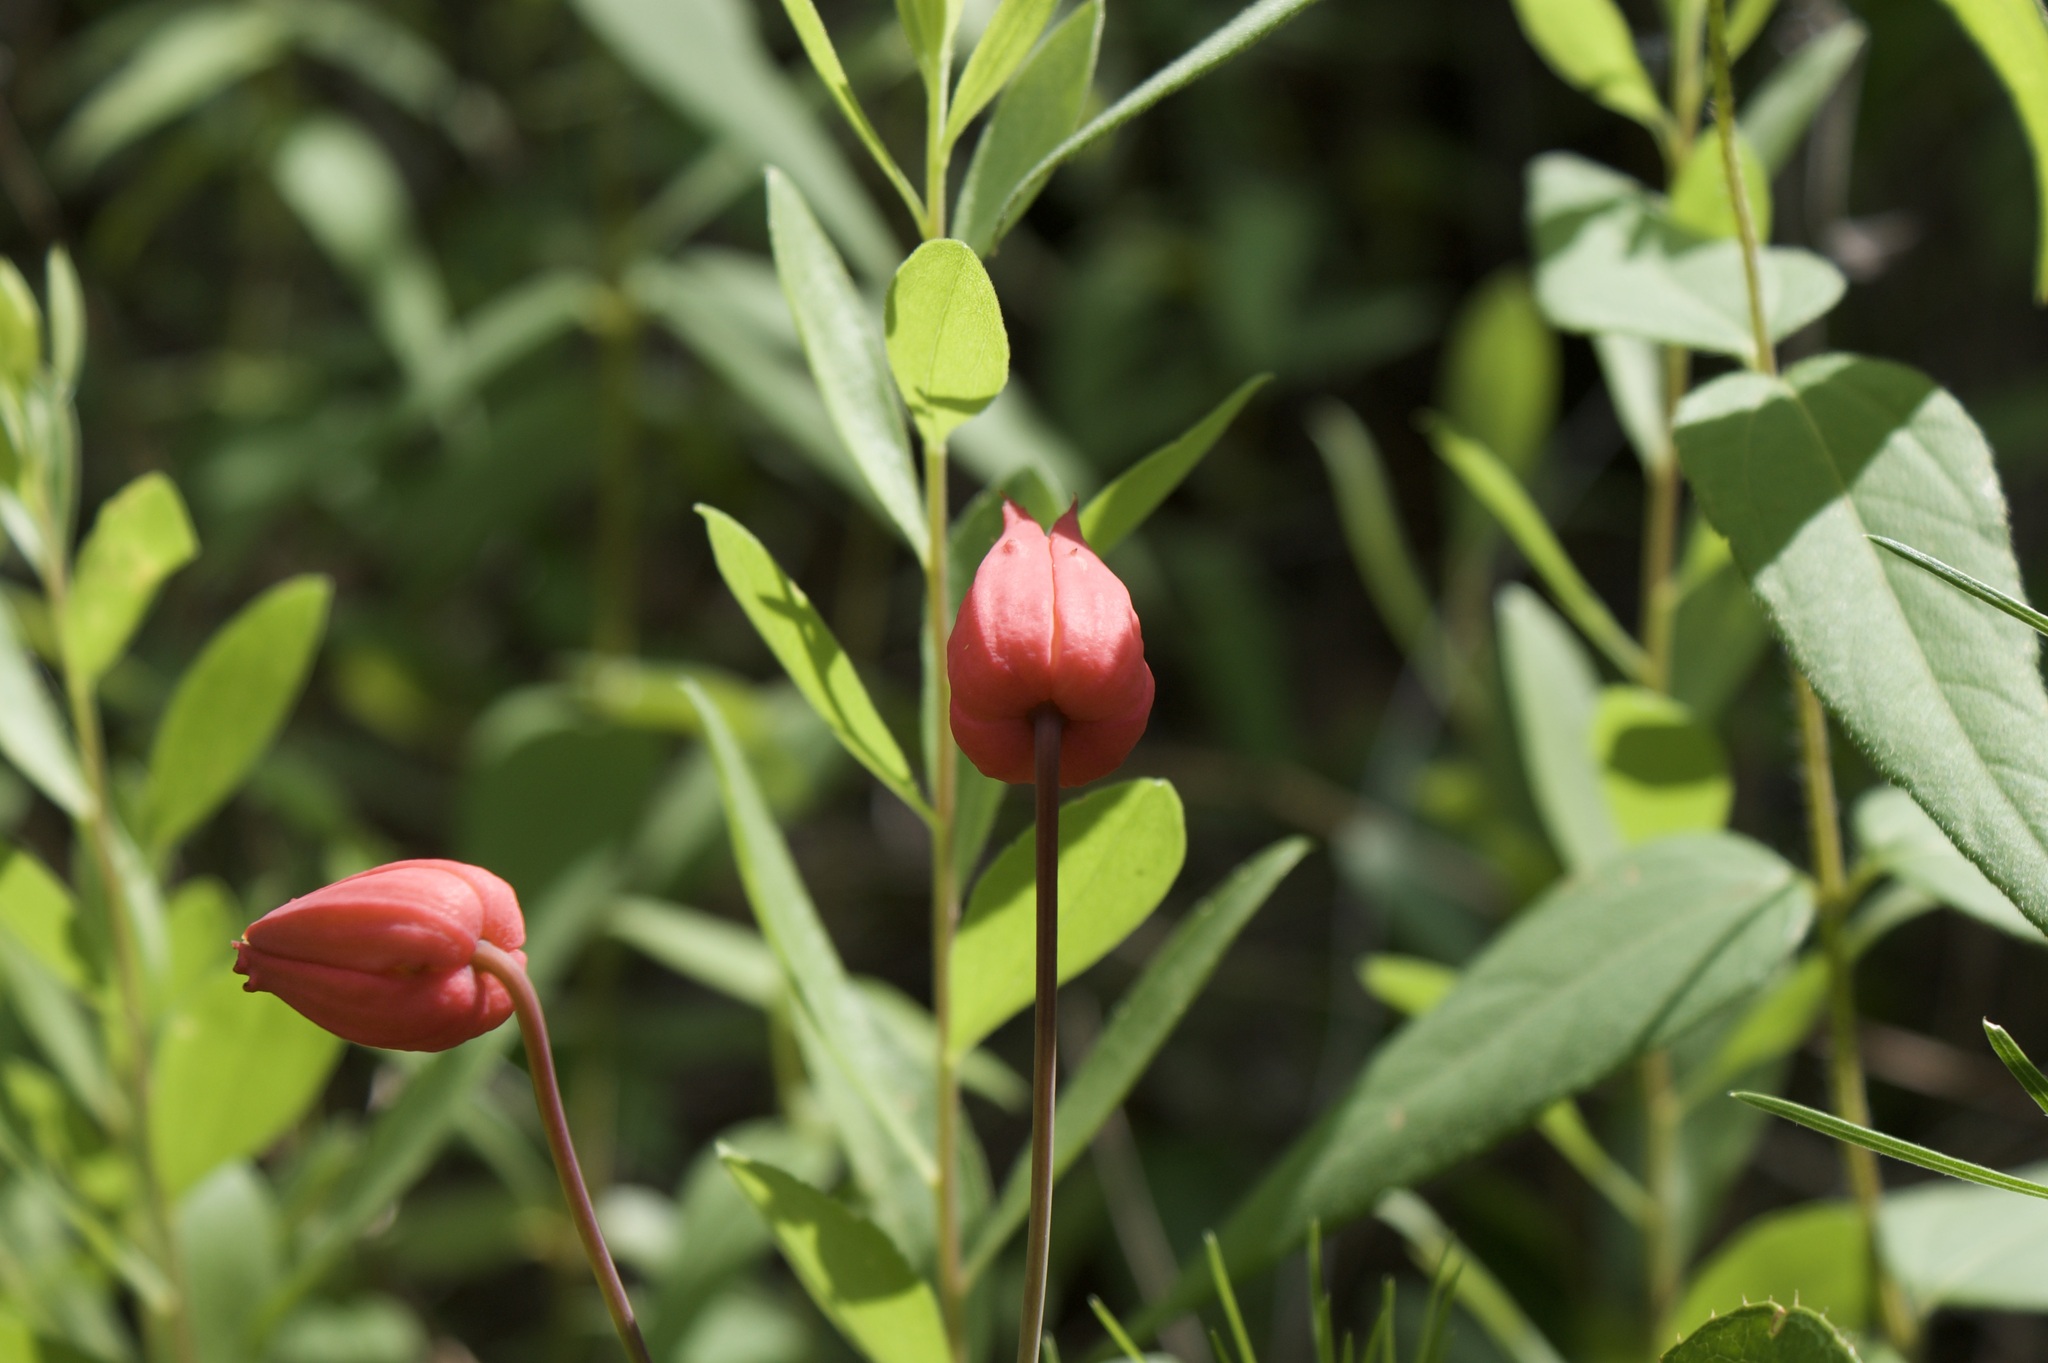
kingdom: Plantae
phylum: Tracheophyta
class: Magnoliopsida
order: Ranunculales
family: Ranunculaceae
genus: Clematis
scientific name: Clematis texensis
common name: Crimson clematis
